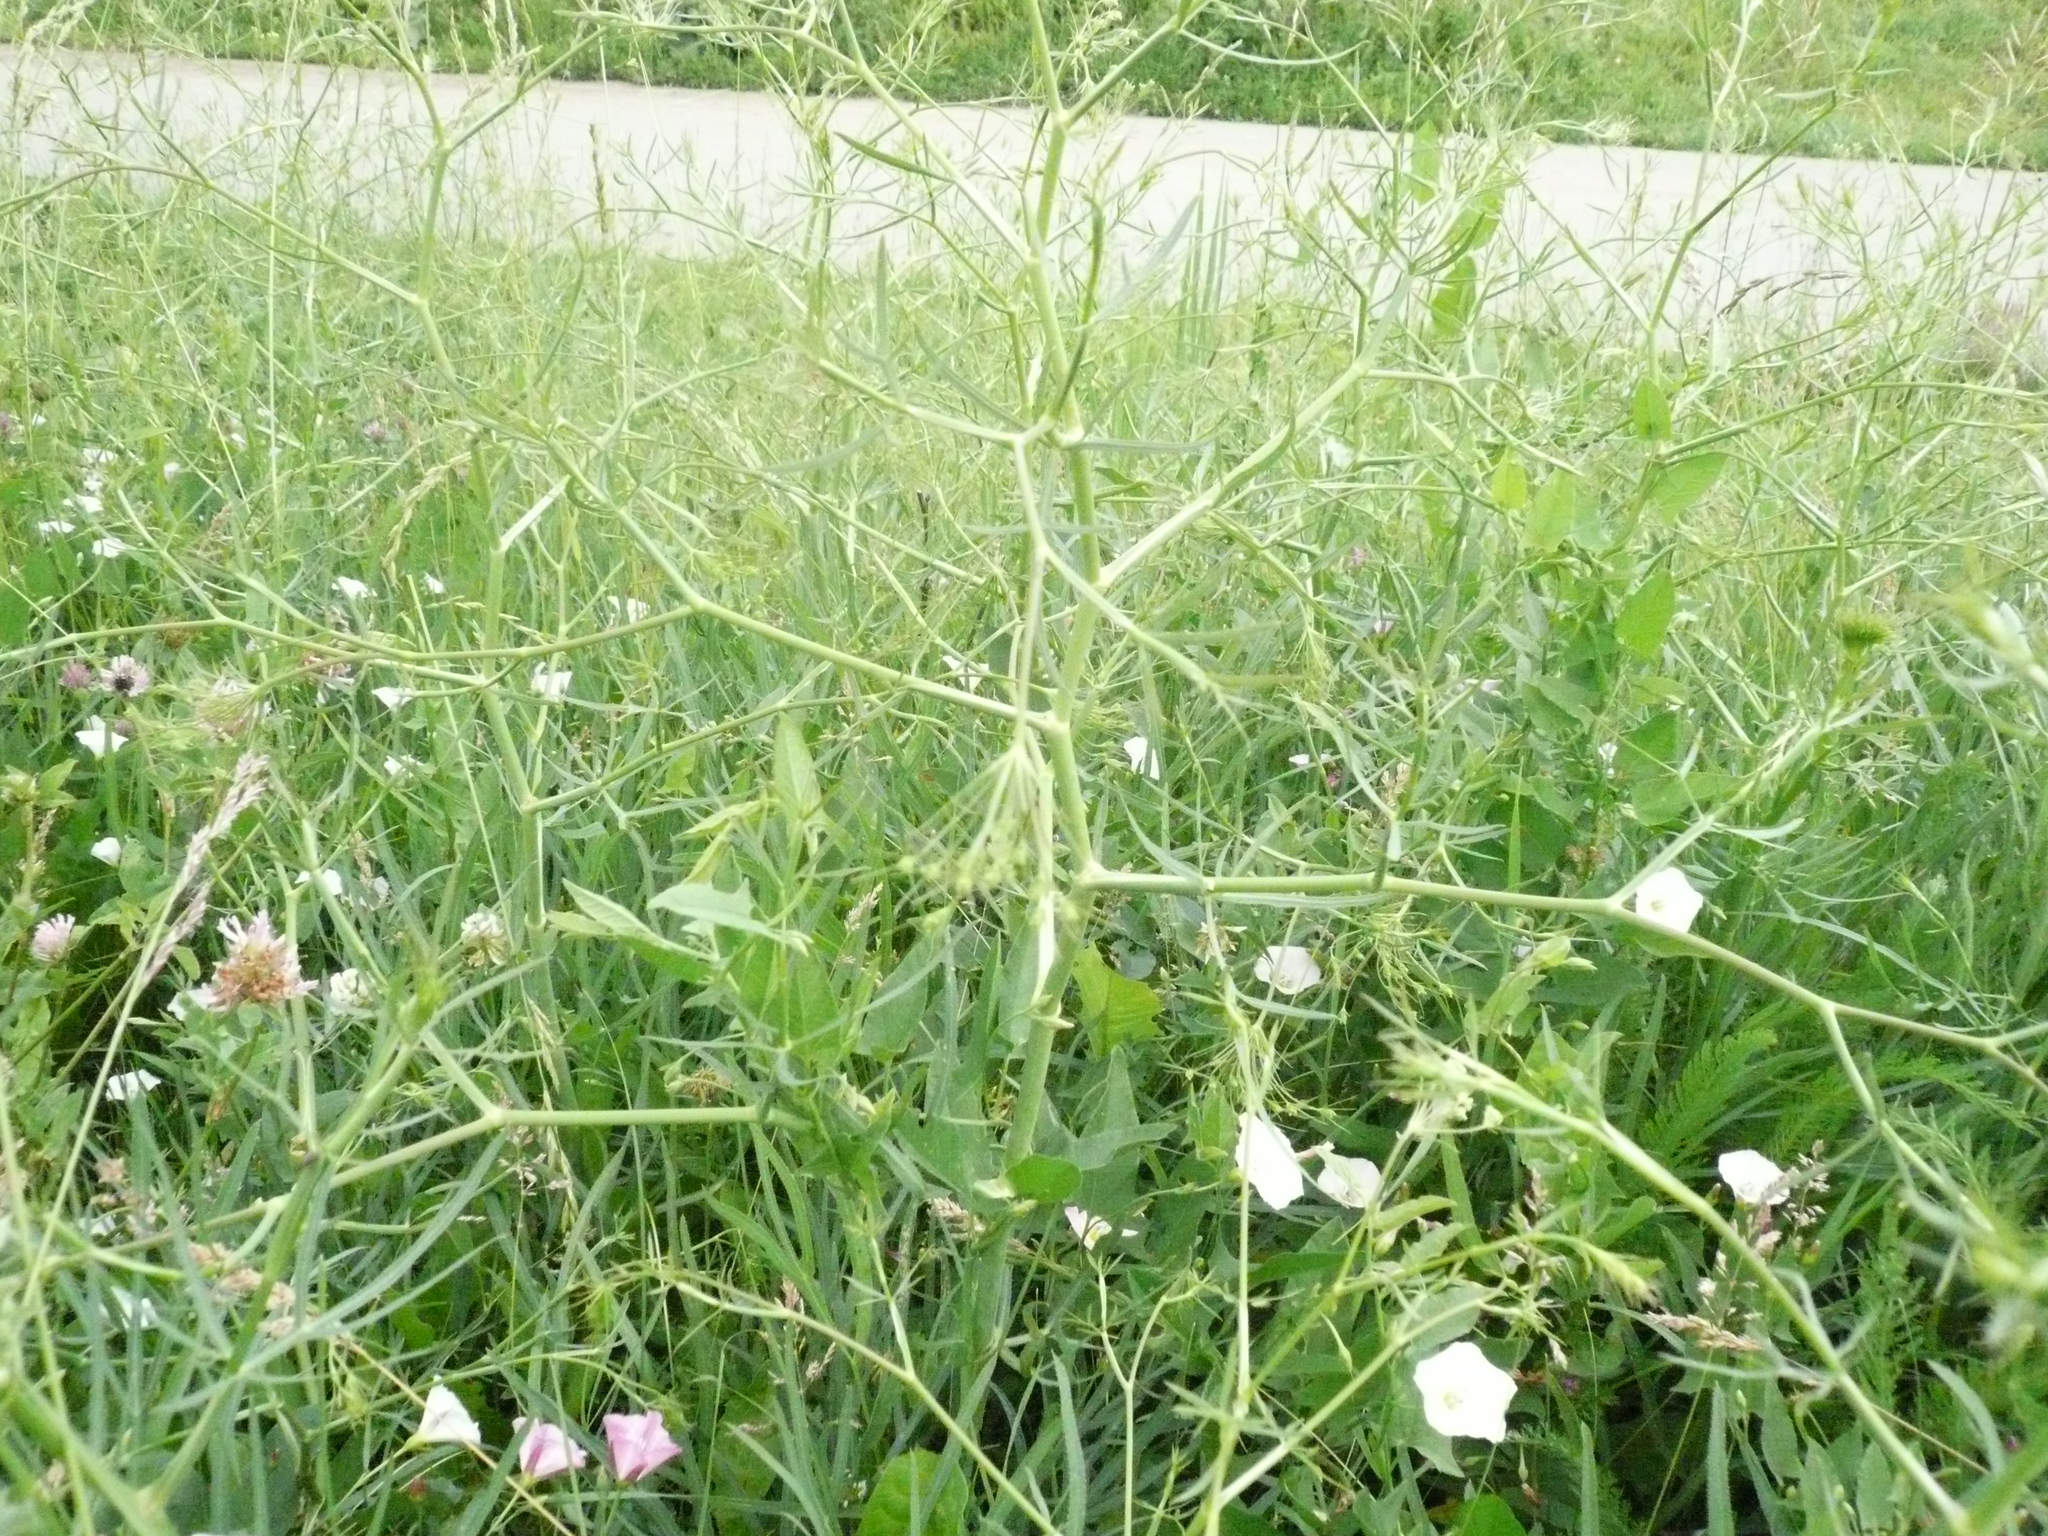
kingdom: Plantae
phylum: Tracheophyta
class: Magnoliopsida
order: Apiales
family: Apiaceae
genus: Falcaria
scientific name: Falcaria vulgaris
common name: Longleaf
